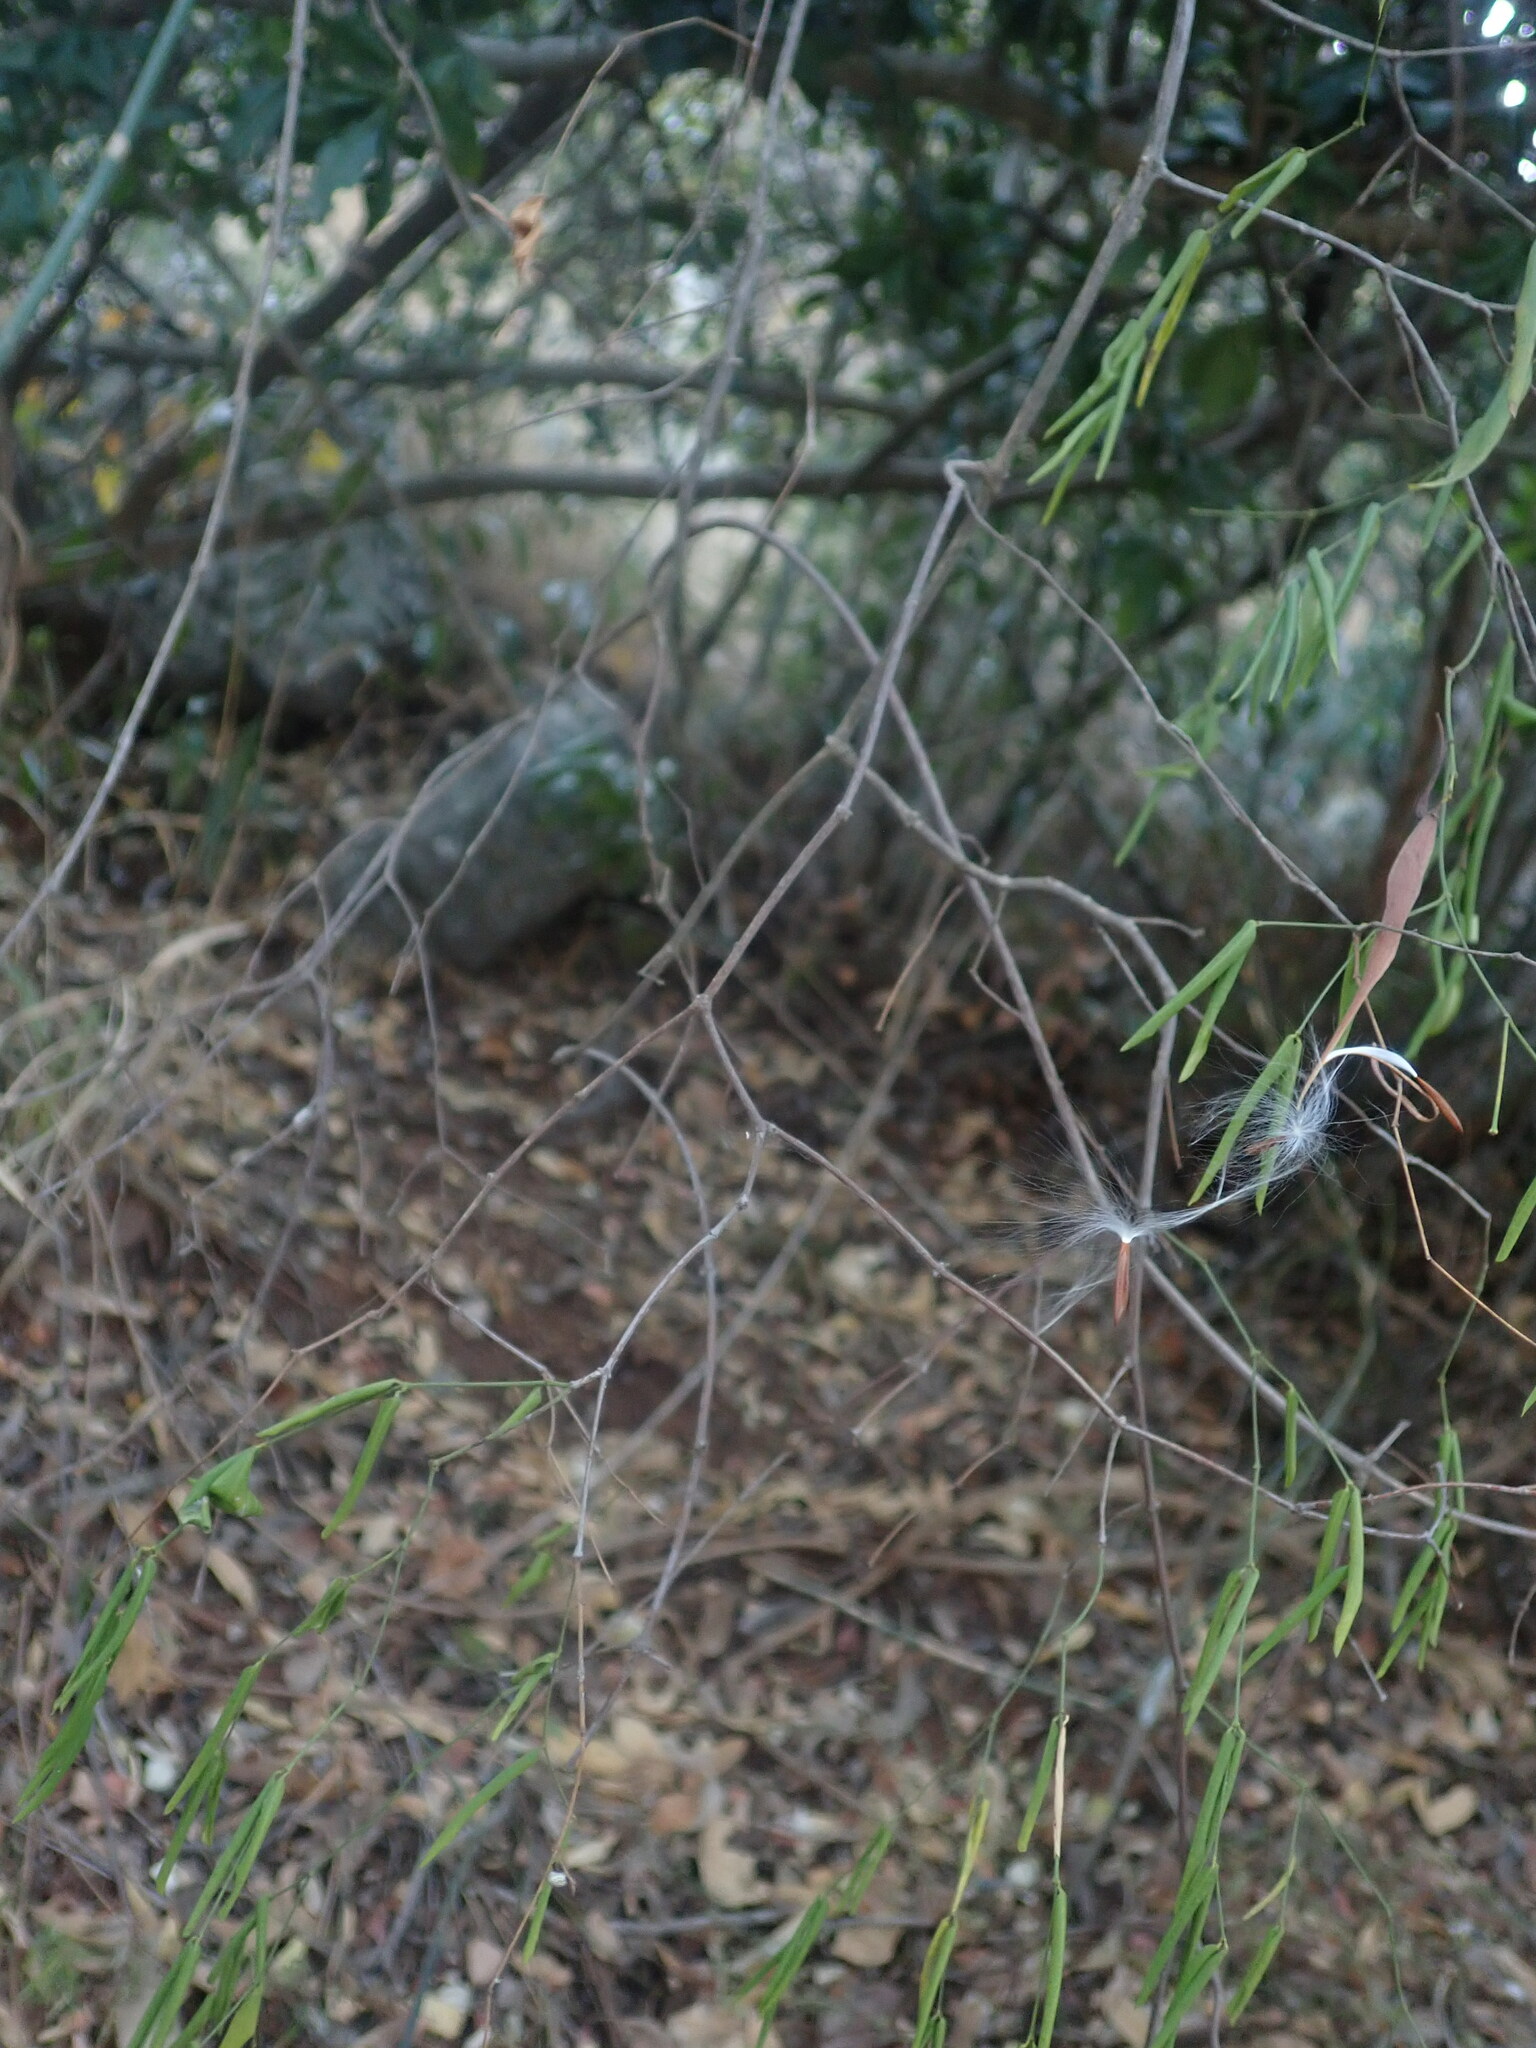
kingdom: Plantae
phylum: Tracheophyta
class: Magnoliopsida
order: Gentianales
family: Apocynaceae
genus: Secamone
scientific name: Secamone filiformis
